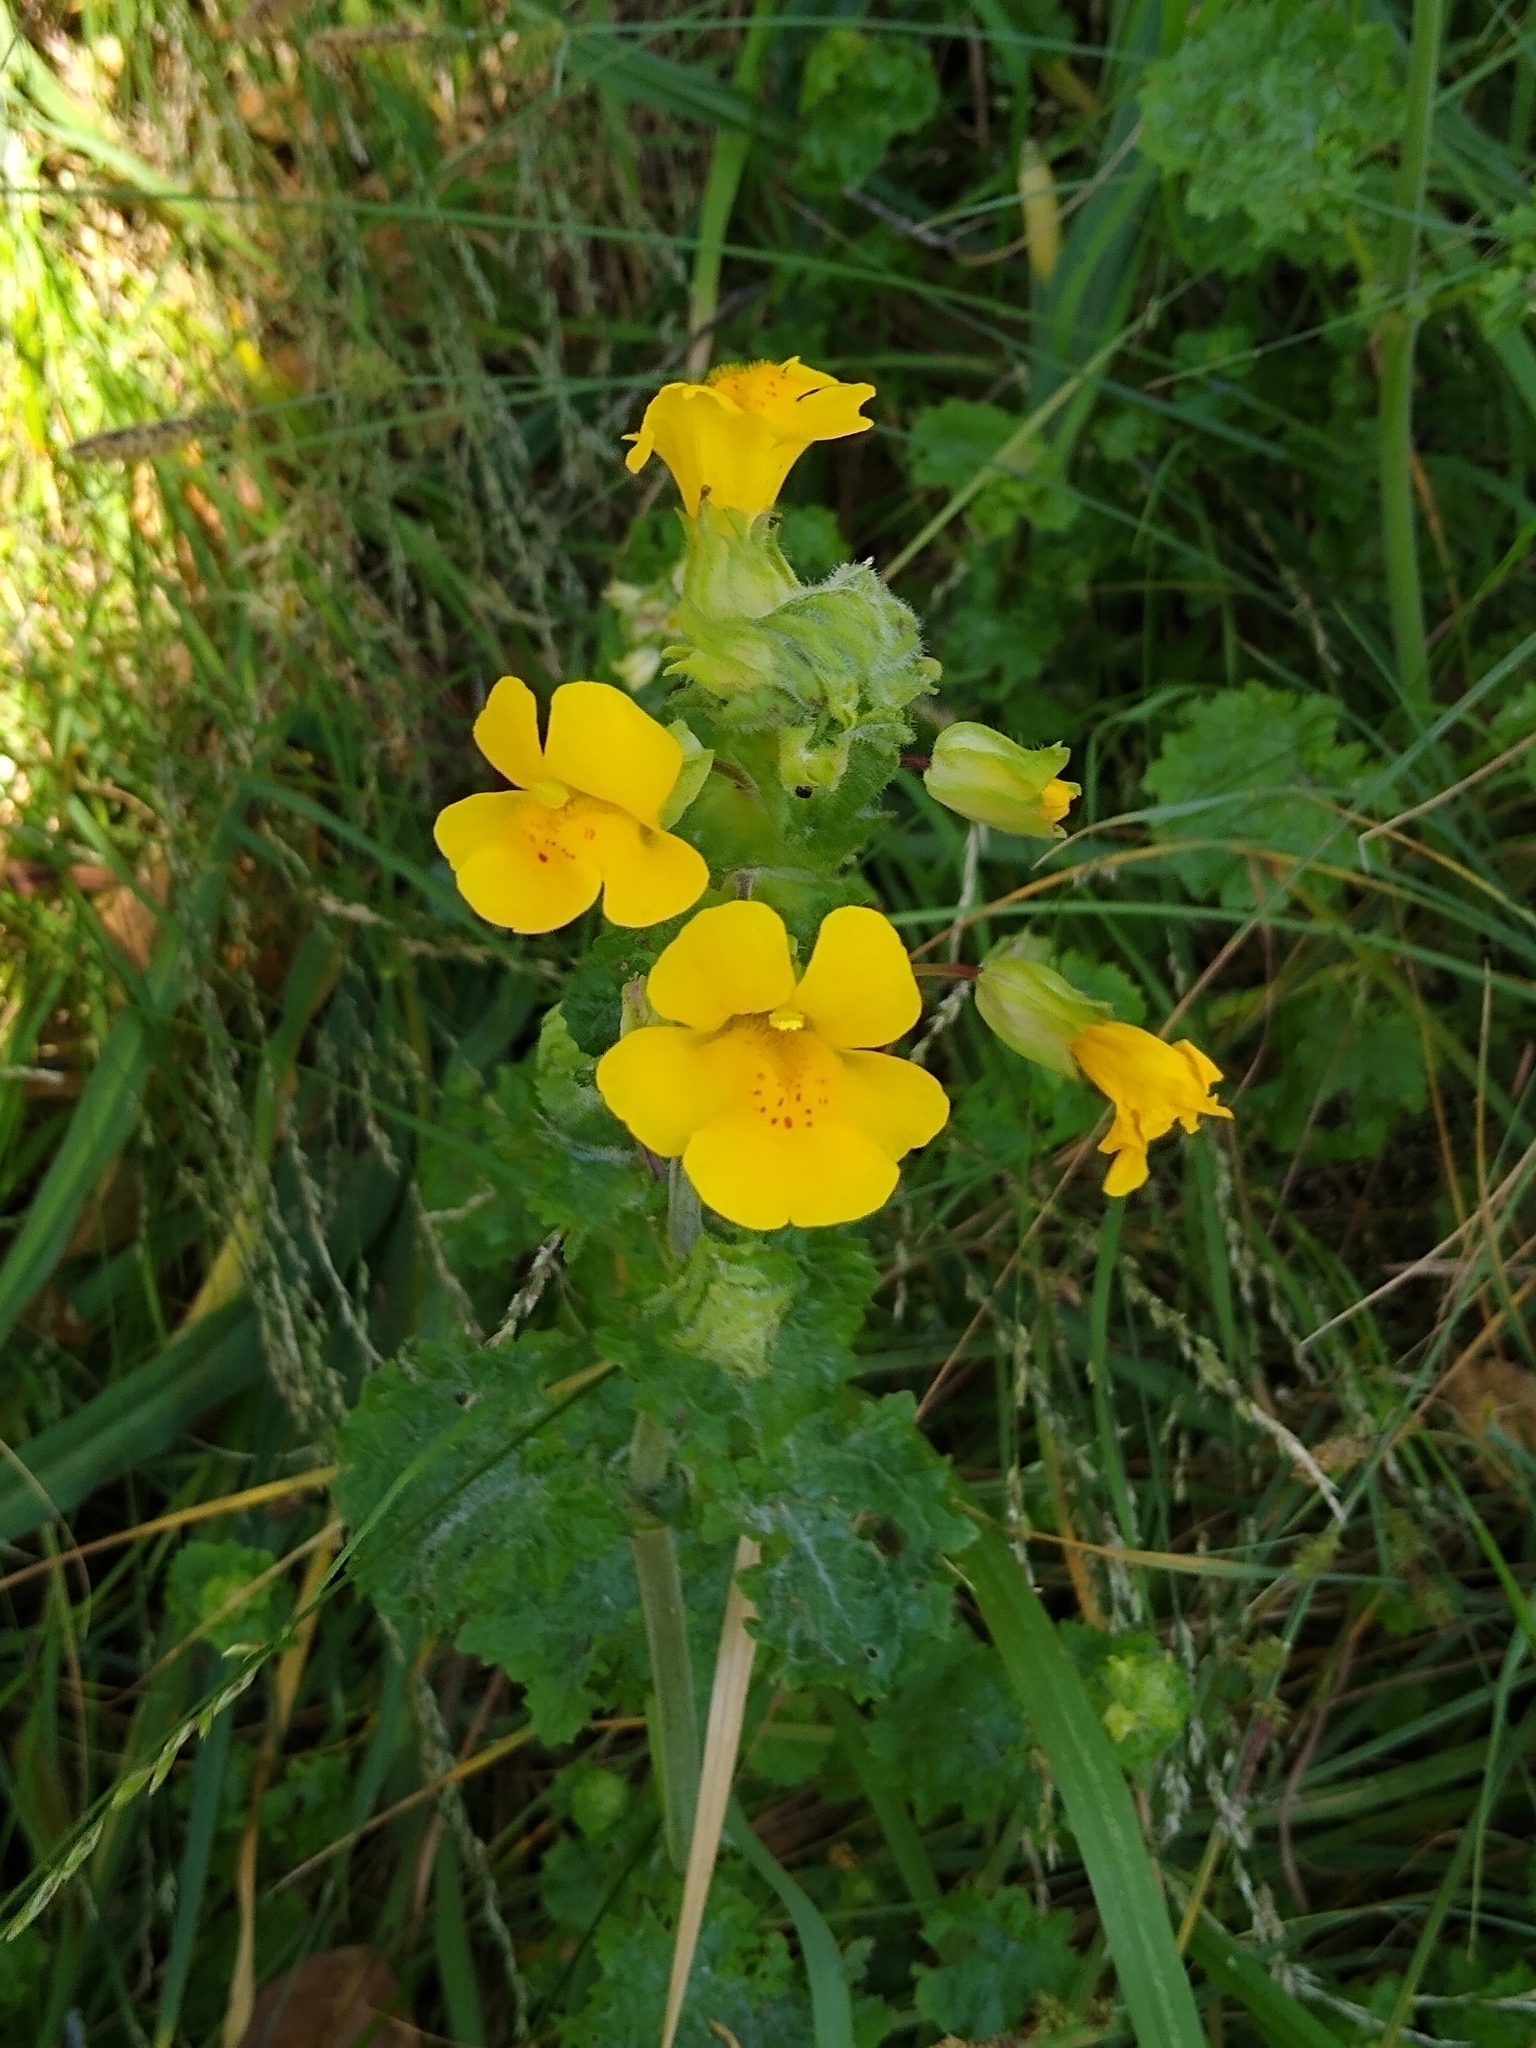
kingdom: Plantae
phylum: Tracheophyta
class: Magnoliopsida
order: Lamiales
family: Phrymaceae
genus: Erythranthe
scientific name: Erythranthe guttata
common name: Monkeyflower
